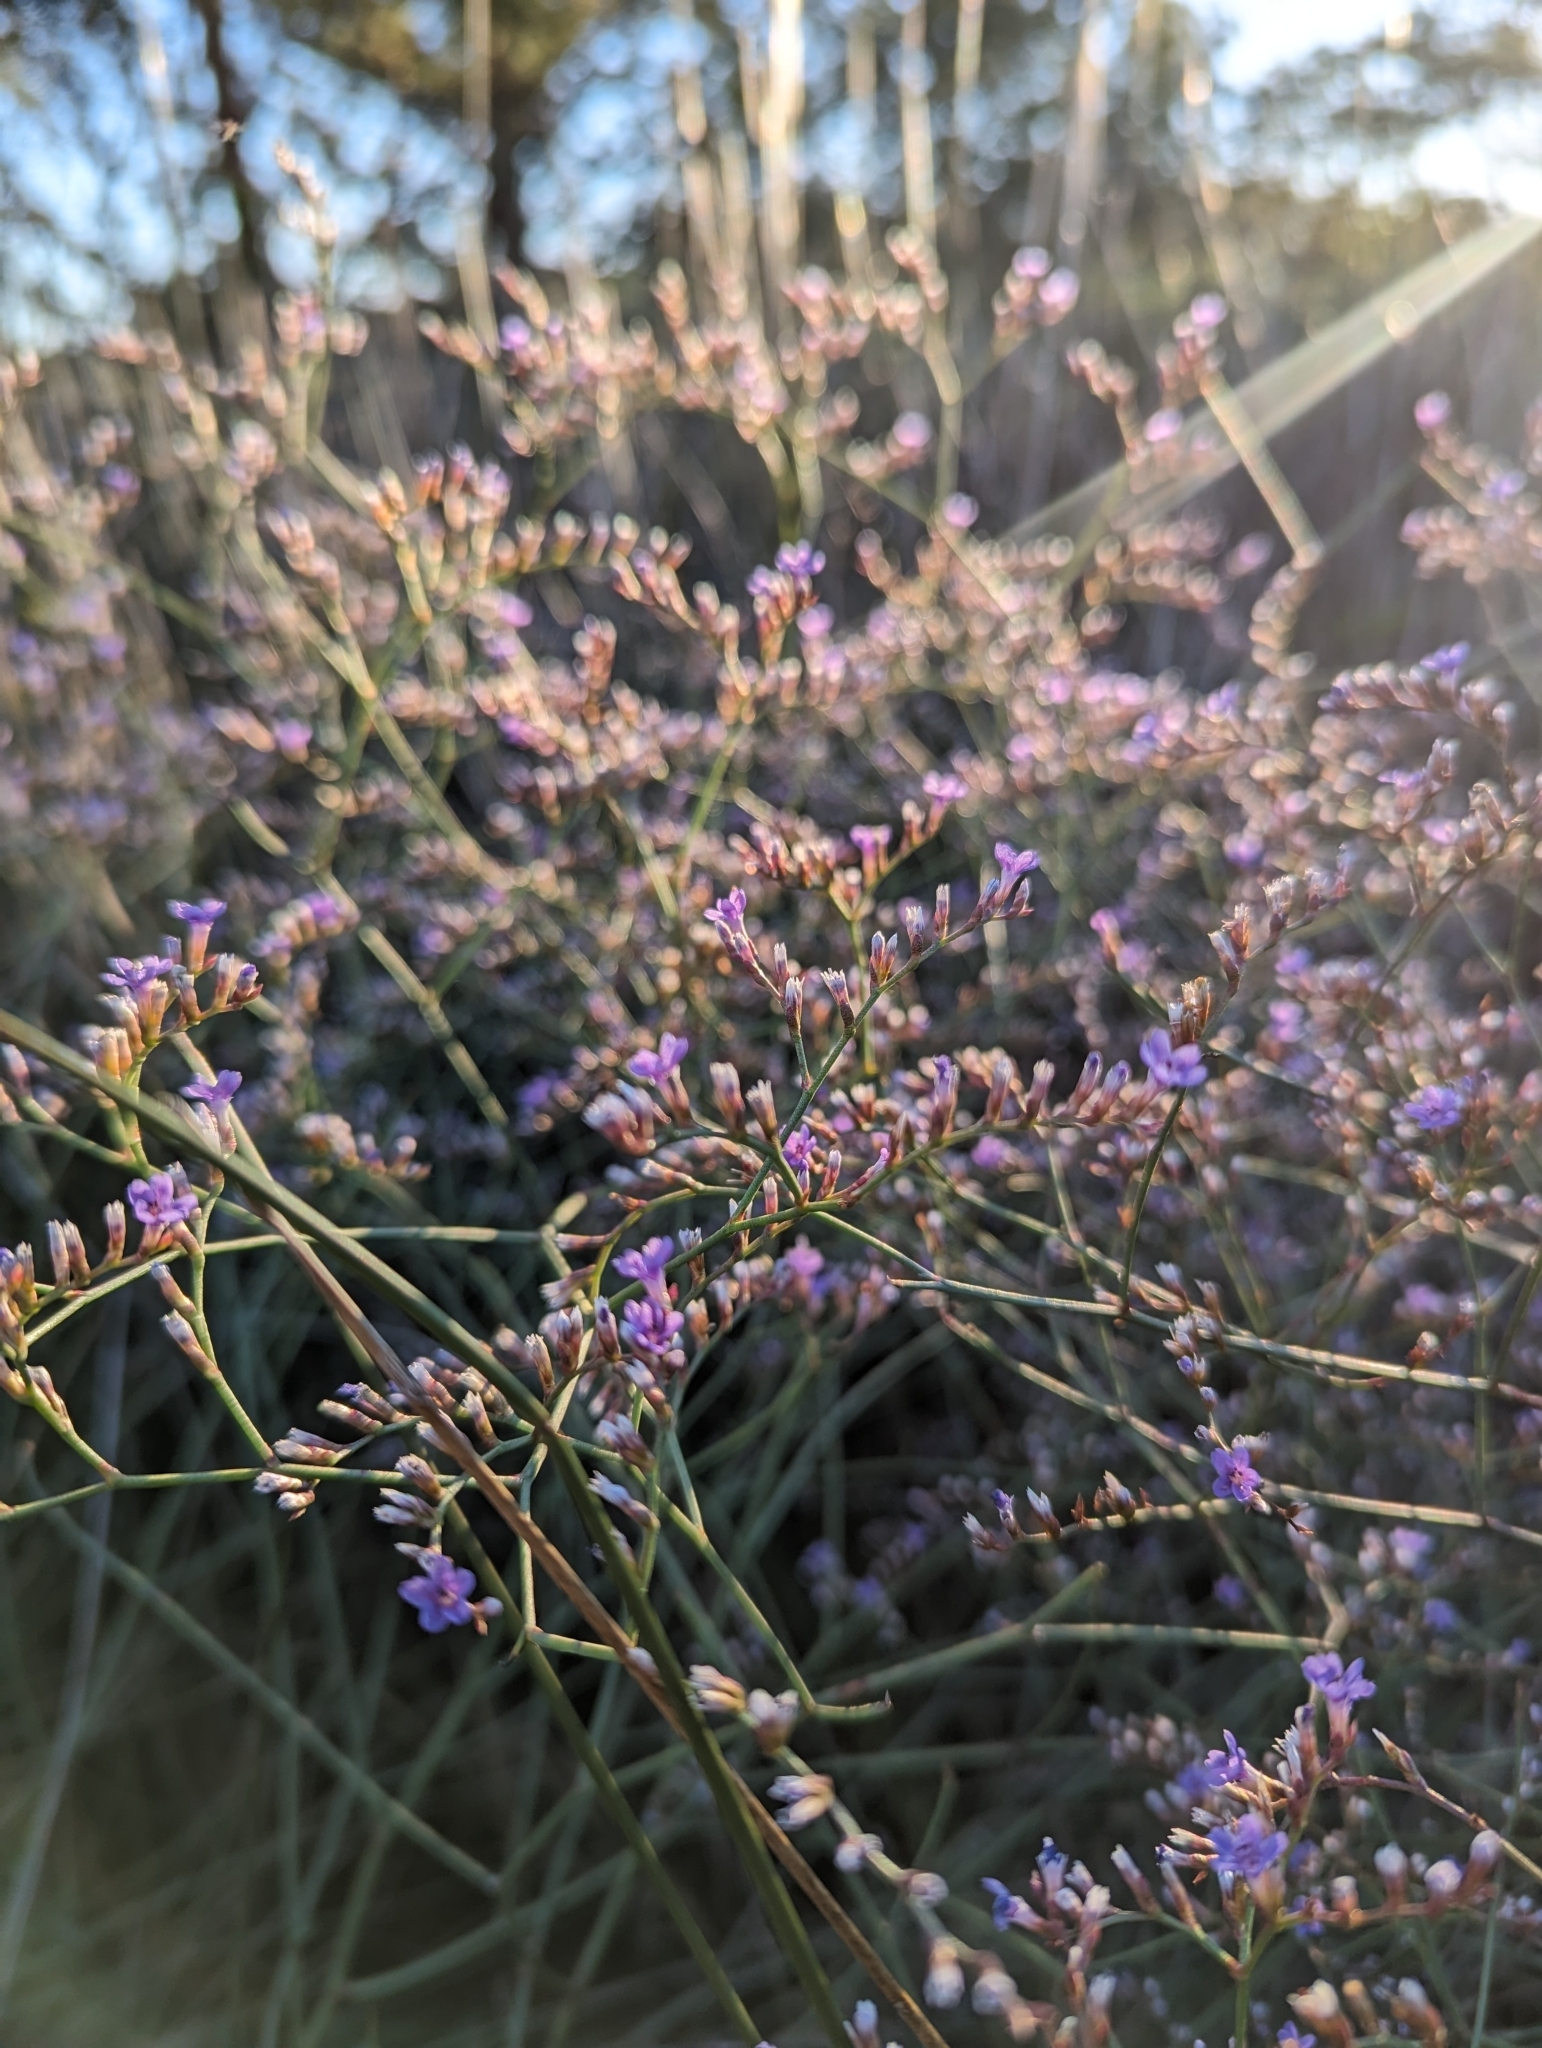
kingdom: Plantae
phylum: Tracheophyta
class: Magnoliopsida
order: Caryophyllales
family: Plumbaginaceae
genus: Limonium
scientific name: Limonium carolinianum
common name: Carolina sea lavender
